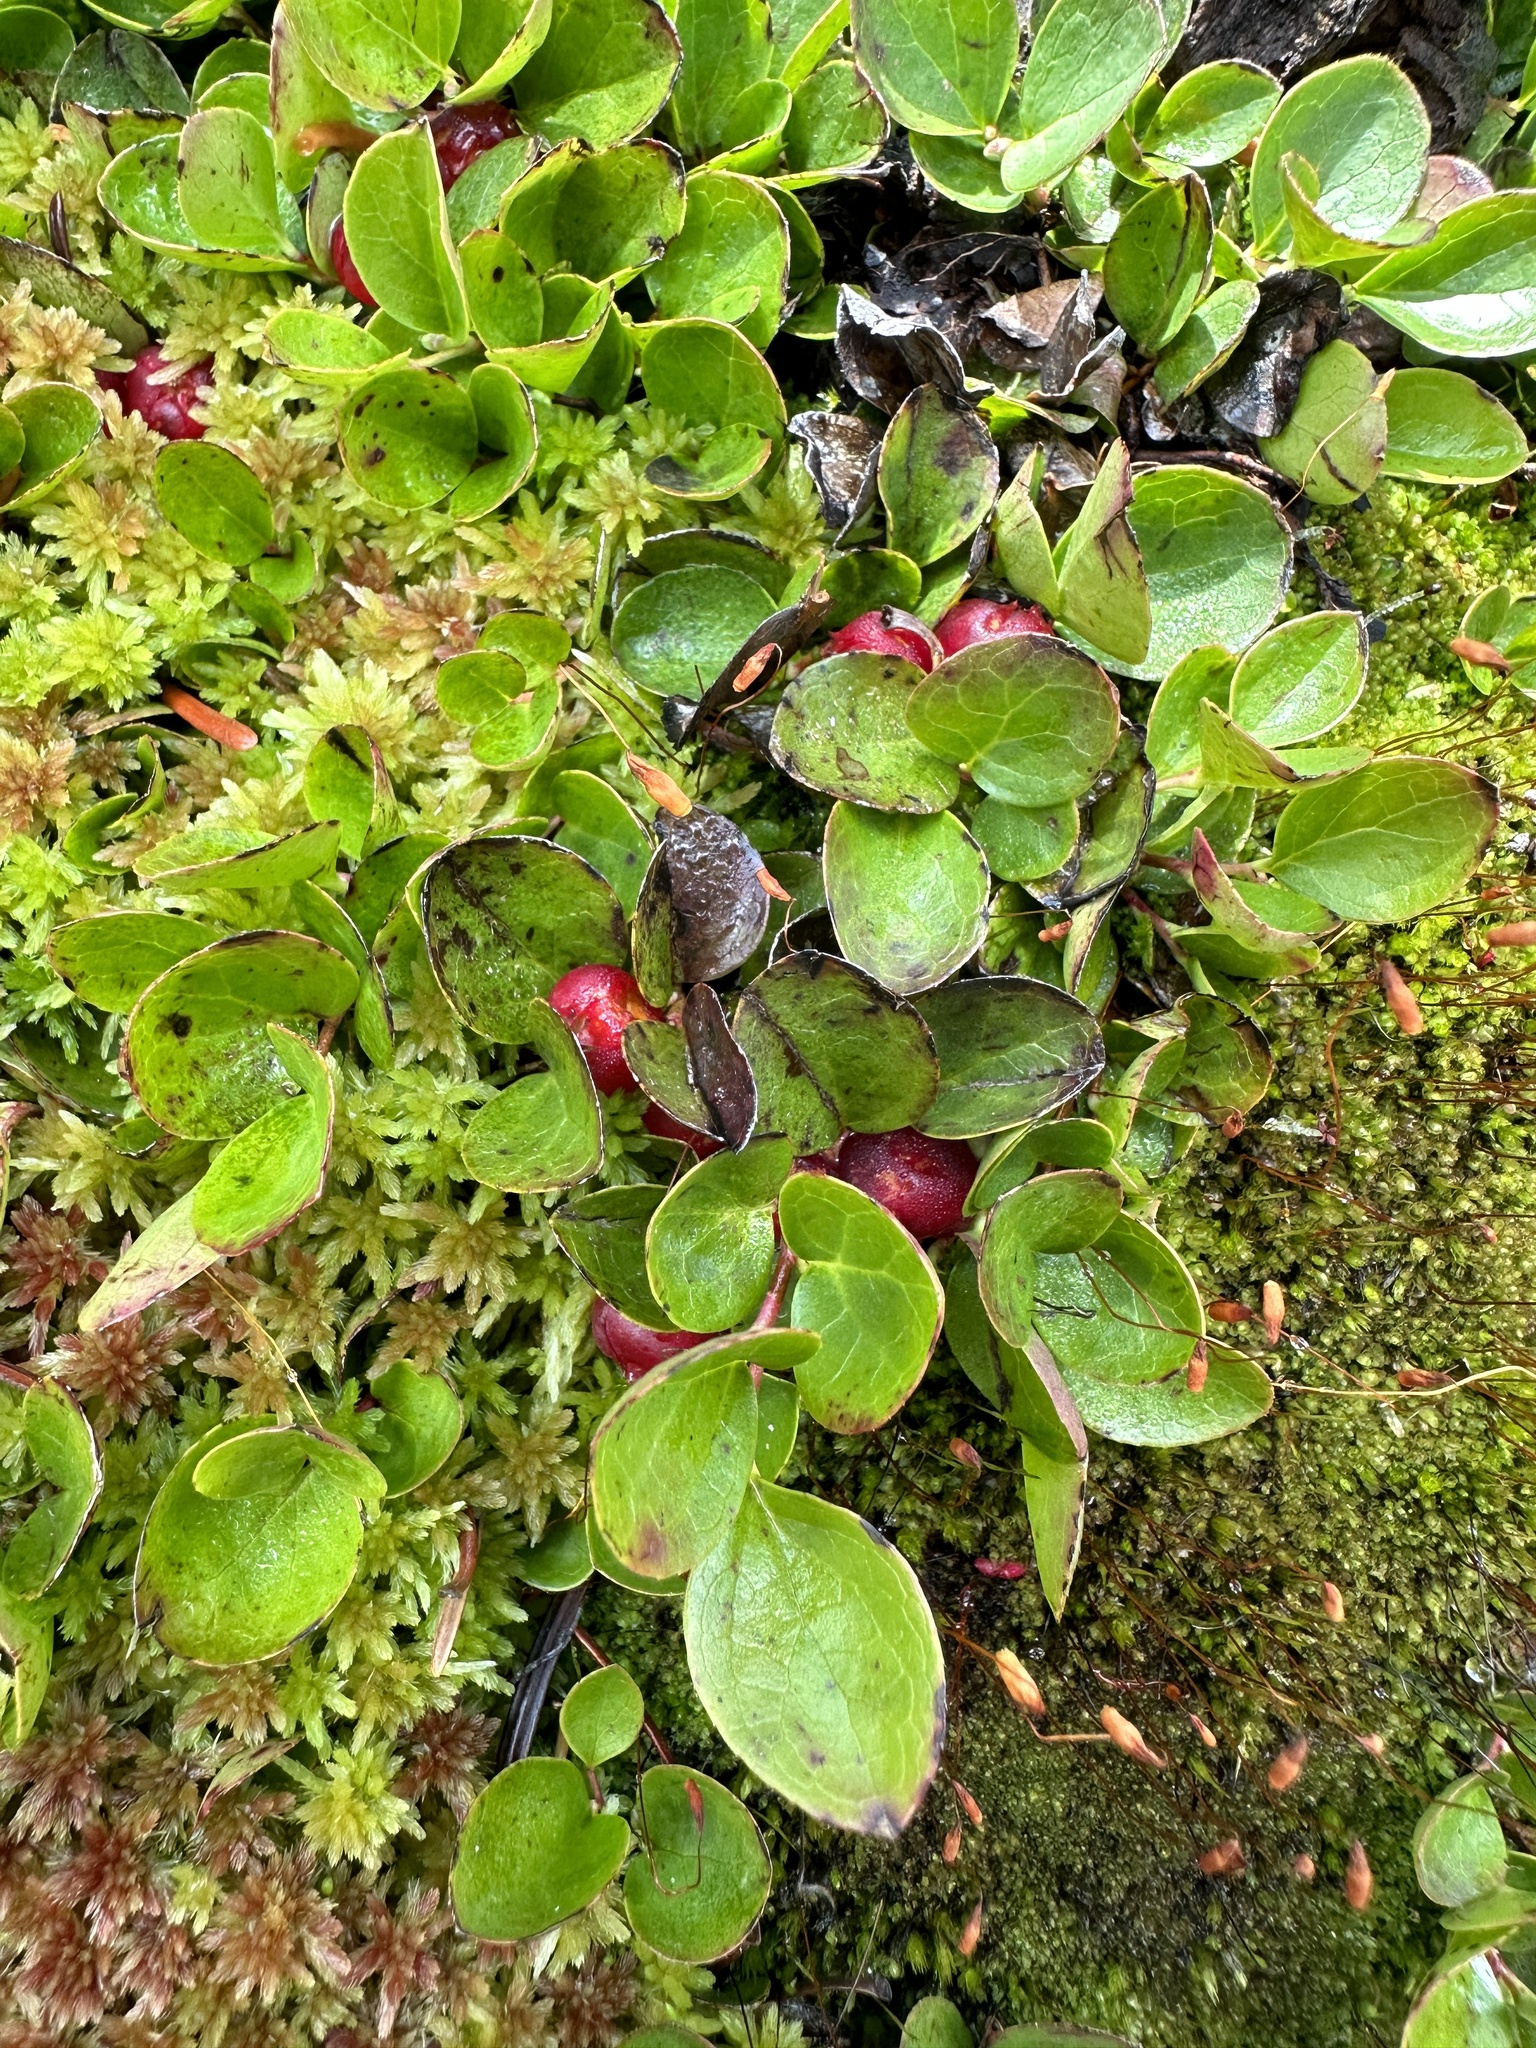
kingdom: Plantae
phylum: Tracheophyta
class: Magnoliopsida
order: Ericales
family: Ericaceae
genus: Gaultheria
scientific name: Gaultheria humifusa
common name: Alpine wintergreen
